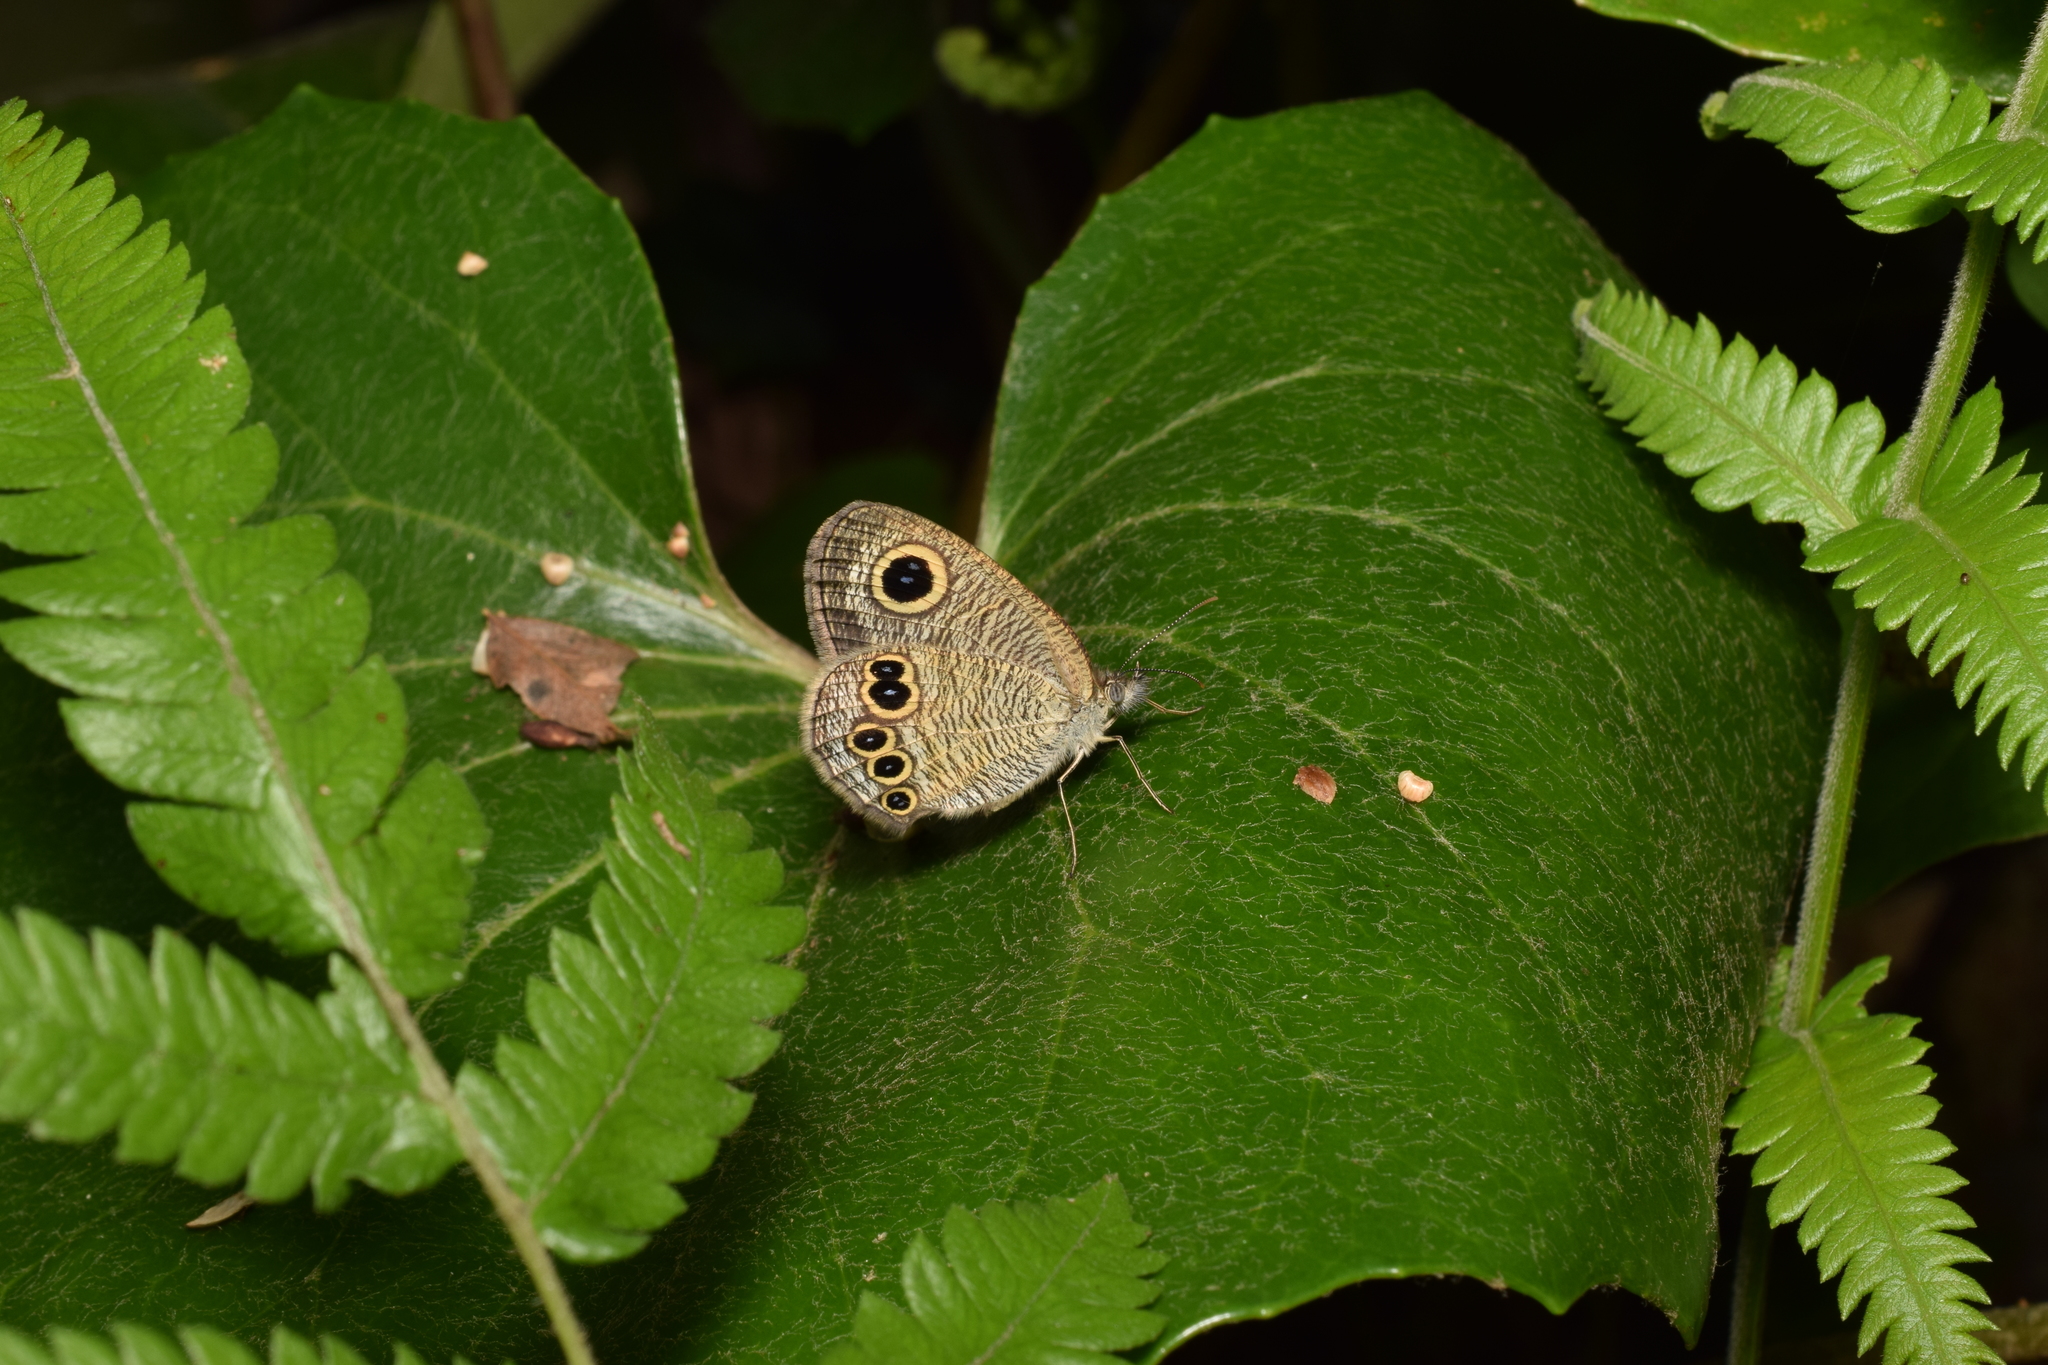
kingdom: Animalia
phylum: Arthropoda
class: Insecta
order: Lepidoptera
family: Nymphalidae
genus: Ypthima
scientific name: Ypthima argus
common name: Common fivering
